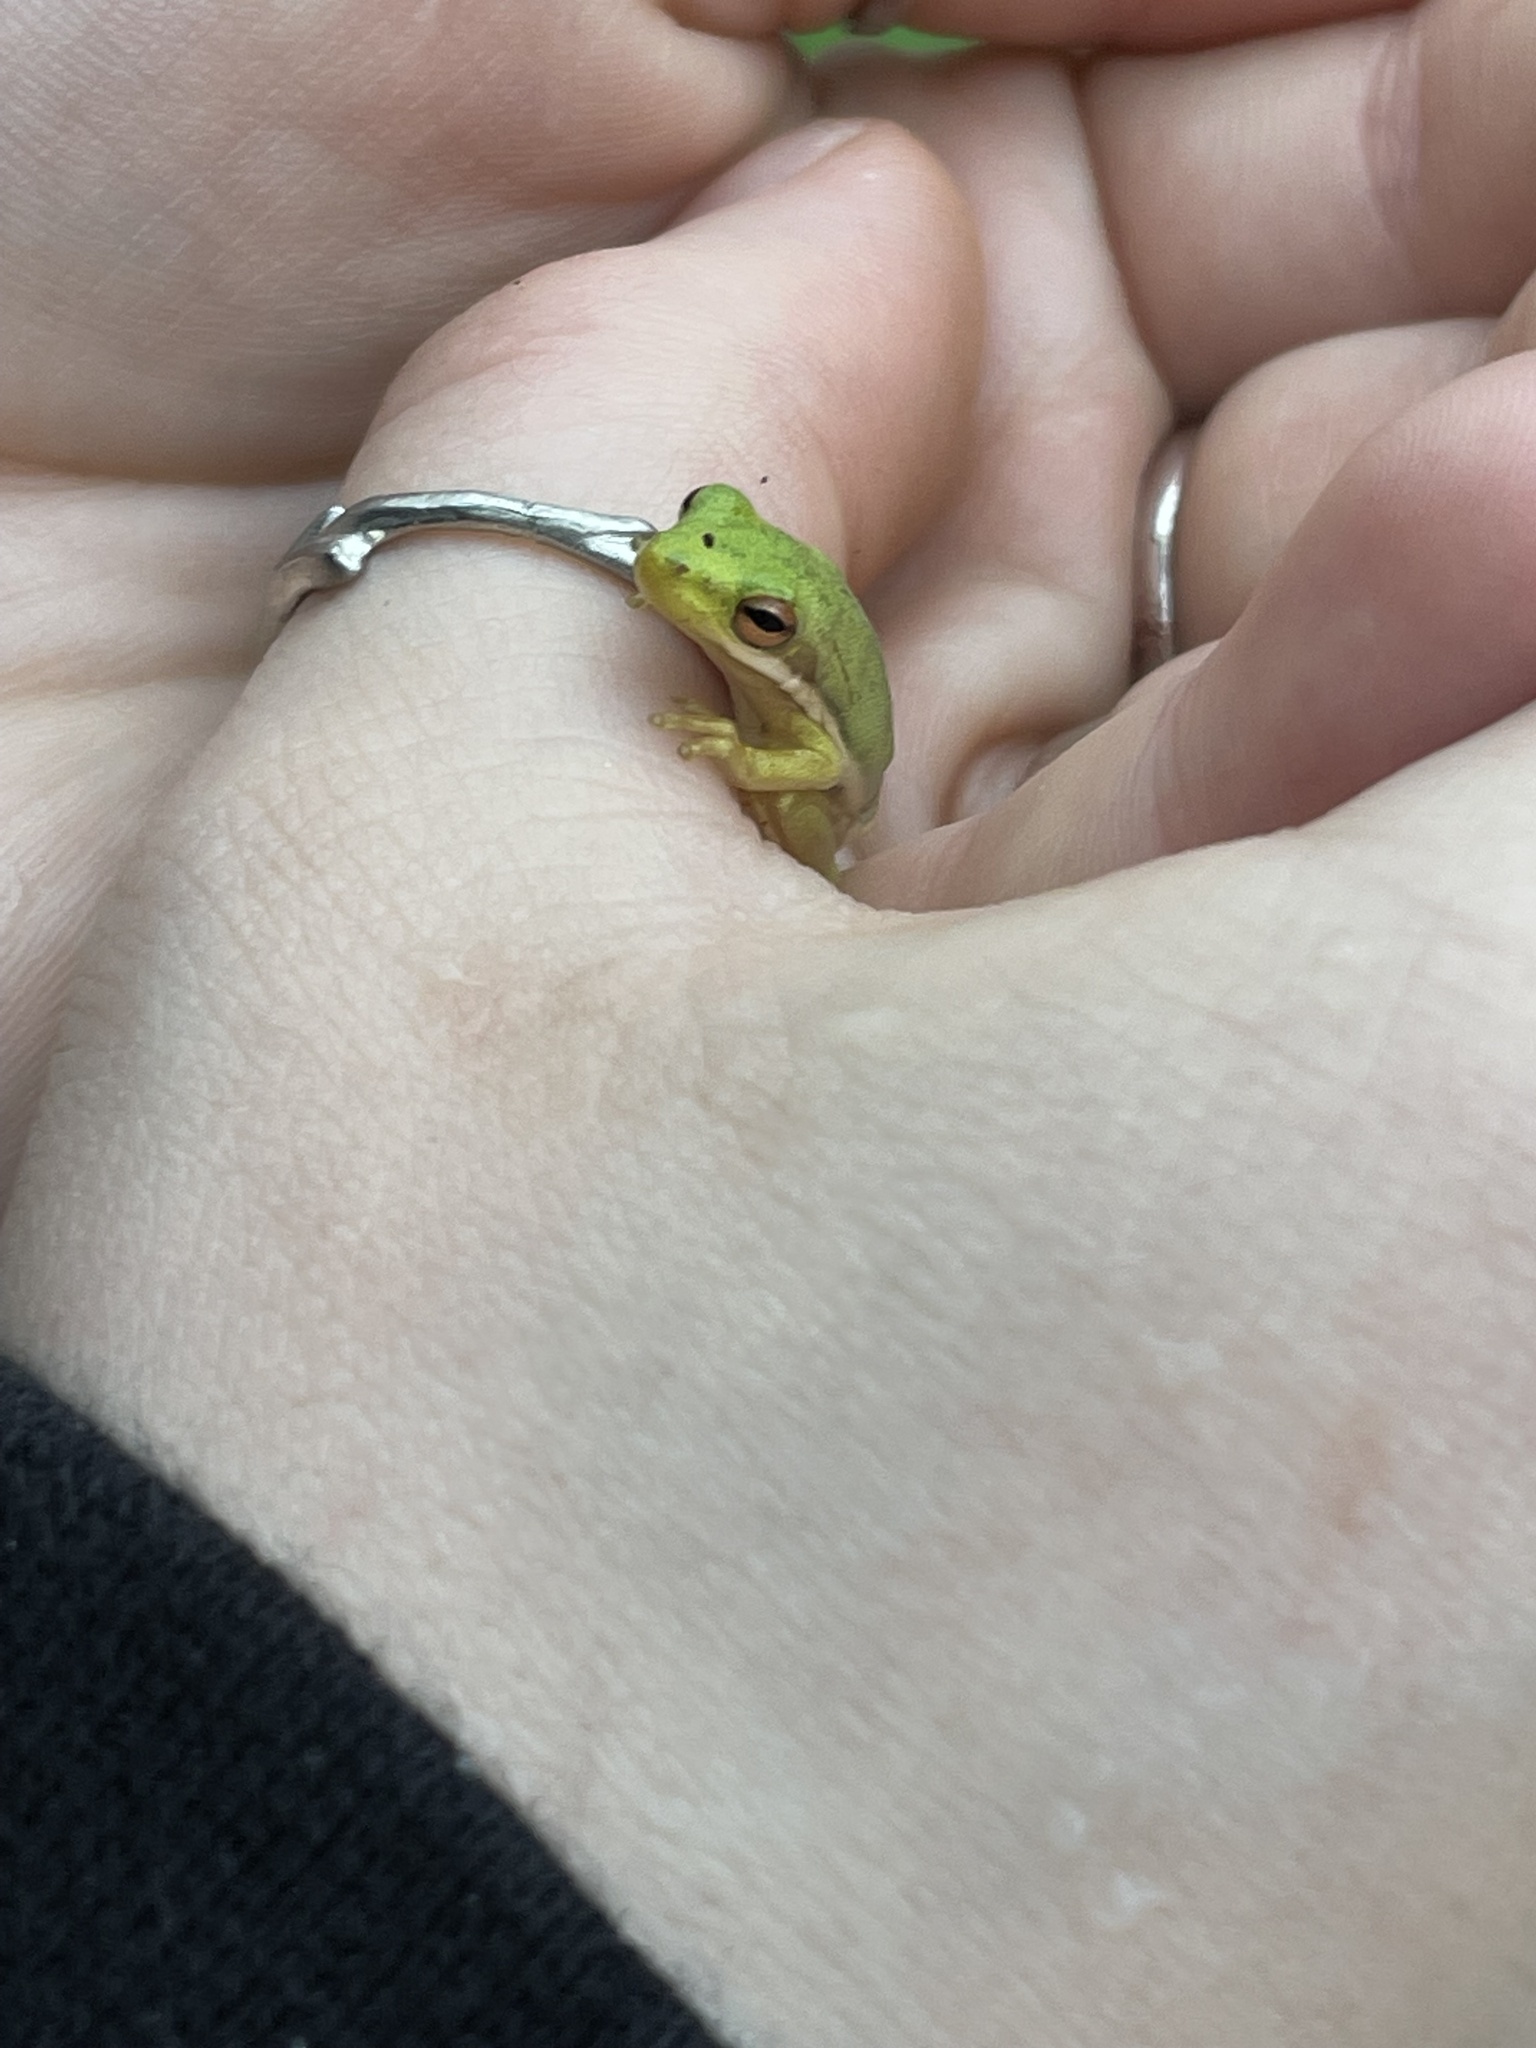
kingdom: Animalia
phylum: Chordata
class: Amphibia
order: Anura
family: Hylidae
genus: Dryophytes
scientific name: Dryophytes cinereus
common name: Green treefrog
